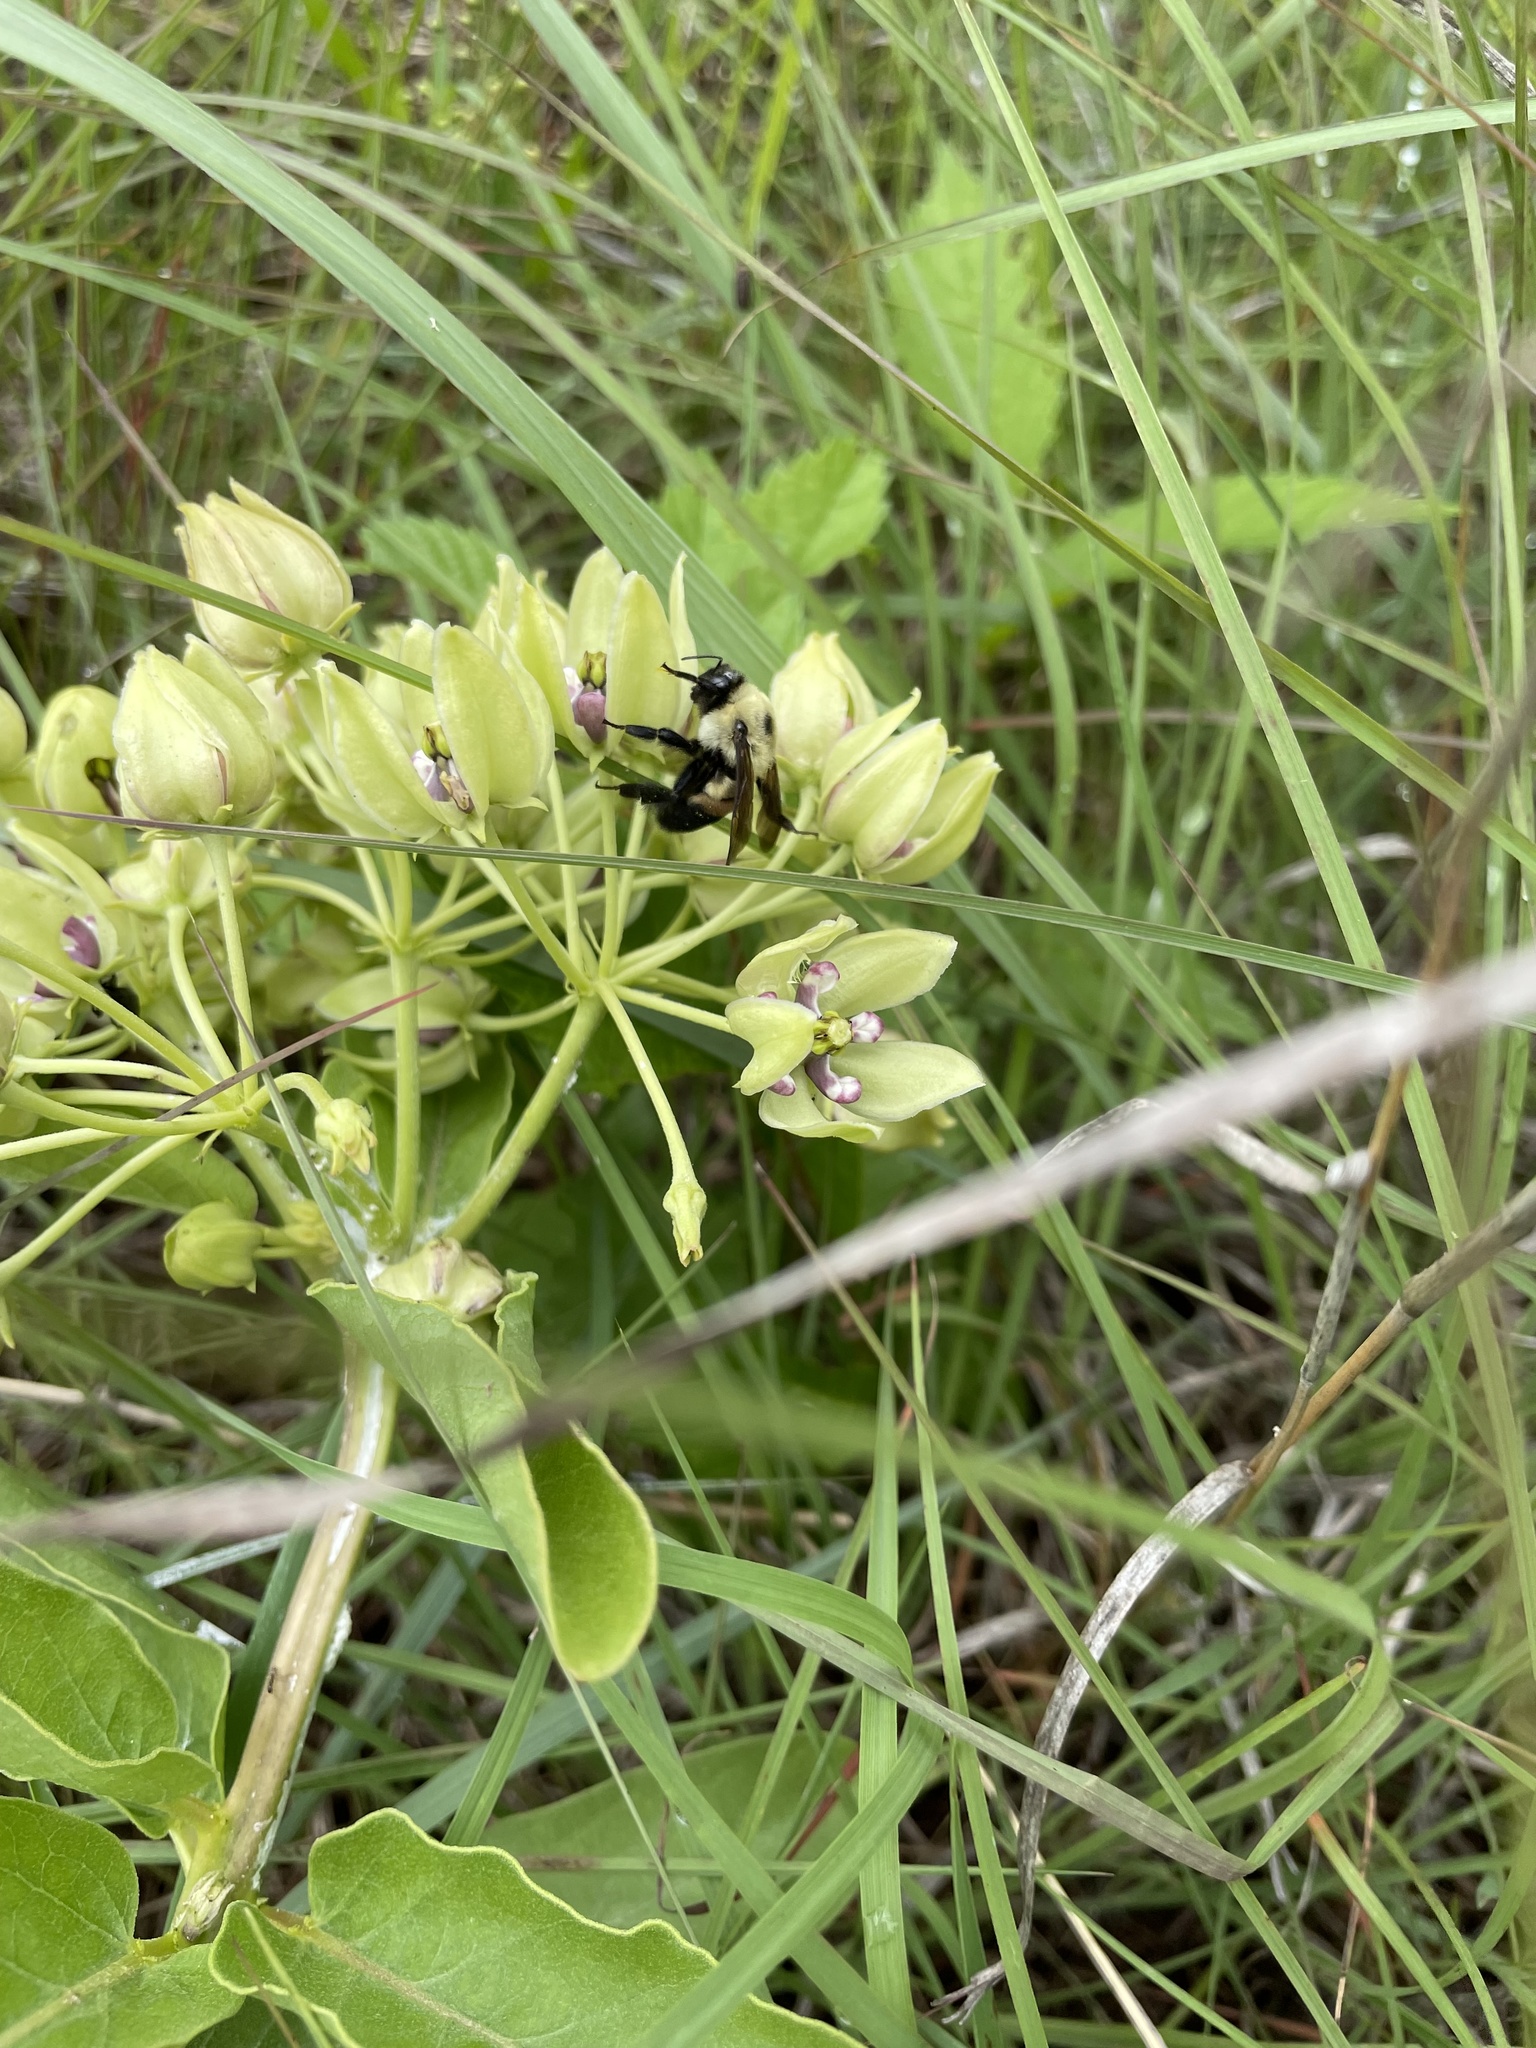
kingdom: Animalia
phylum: Arthropoda
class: Insecta
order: Hymenoptera
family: Apidae
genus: Bombus
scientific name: Bombus griseocollis
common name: Brown-belted bumble bee
